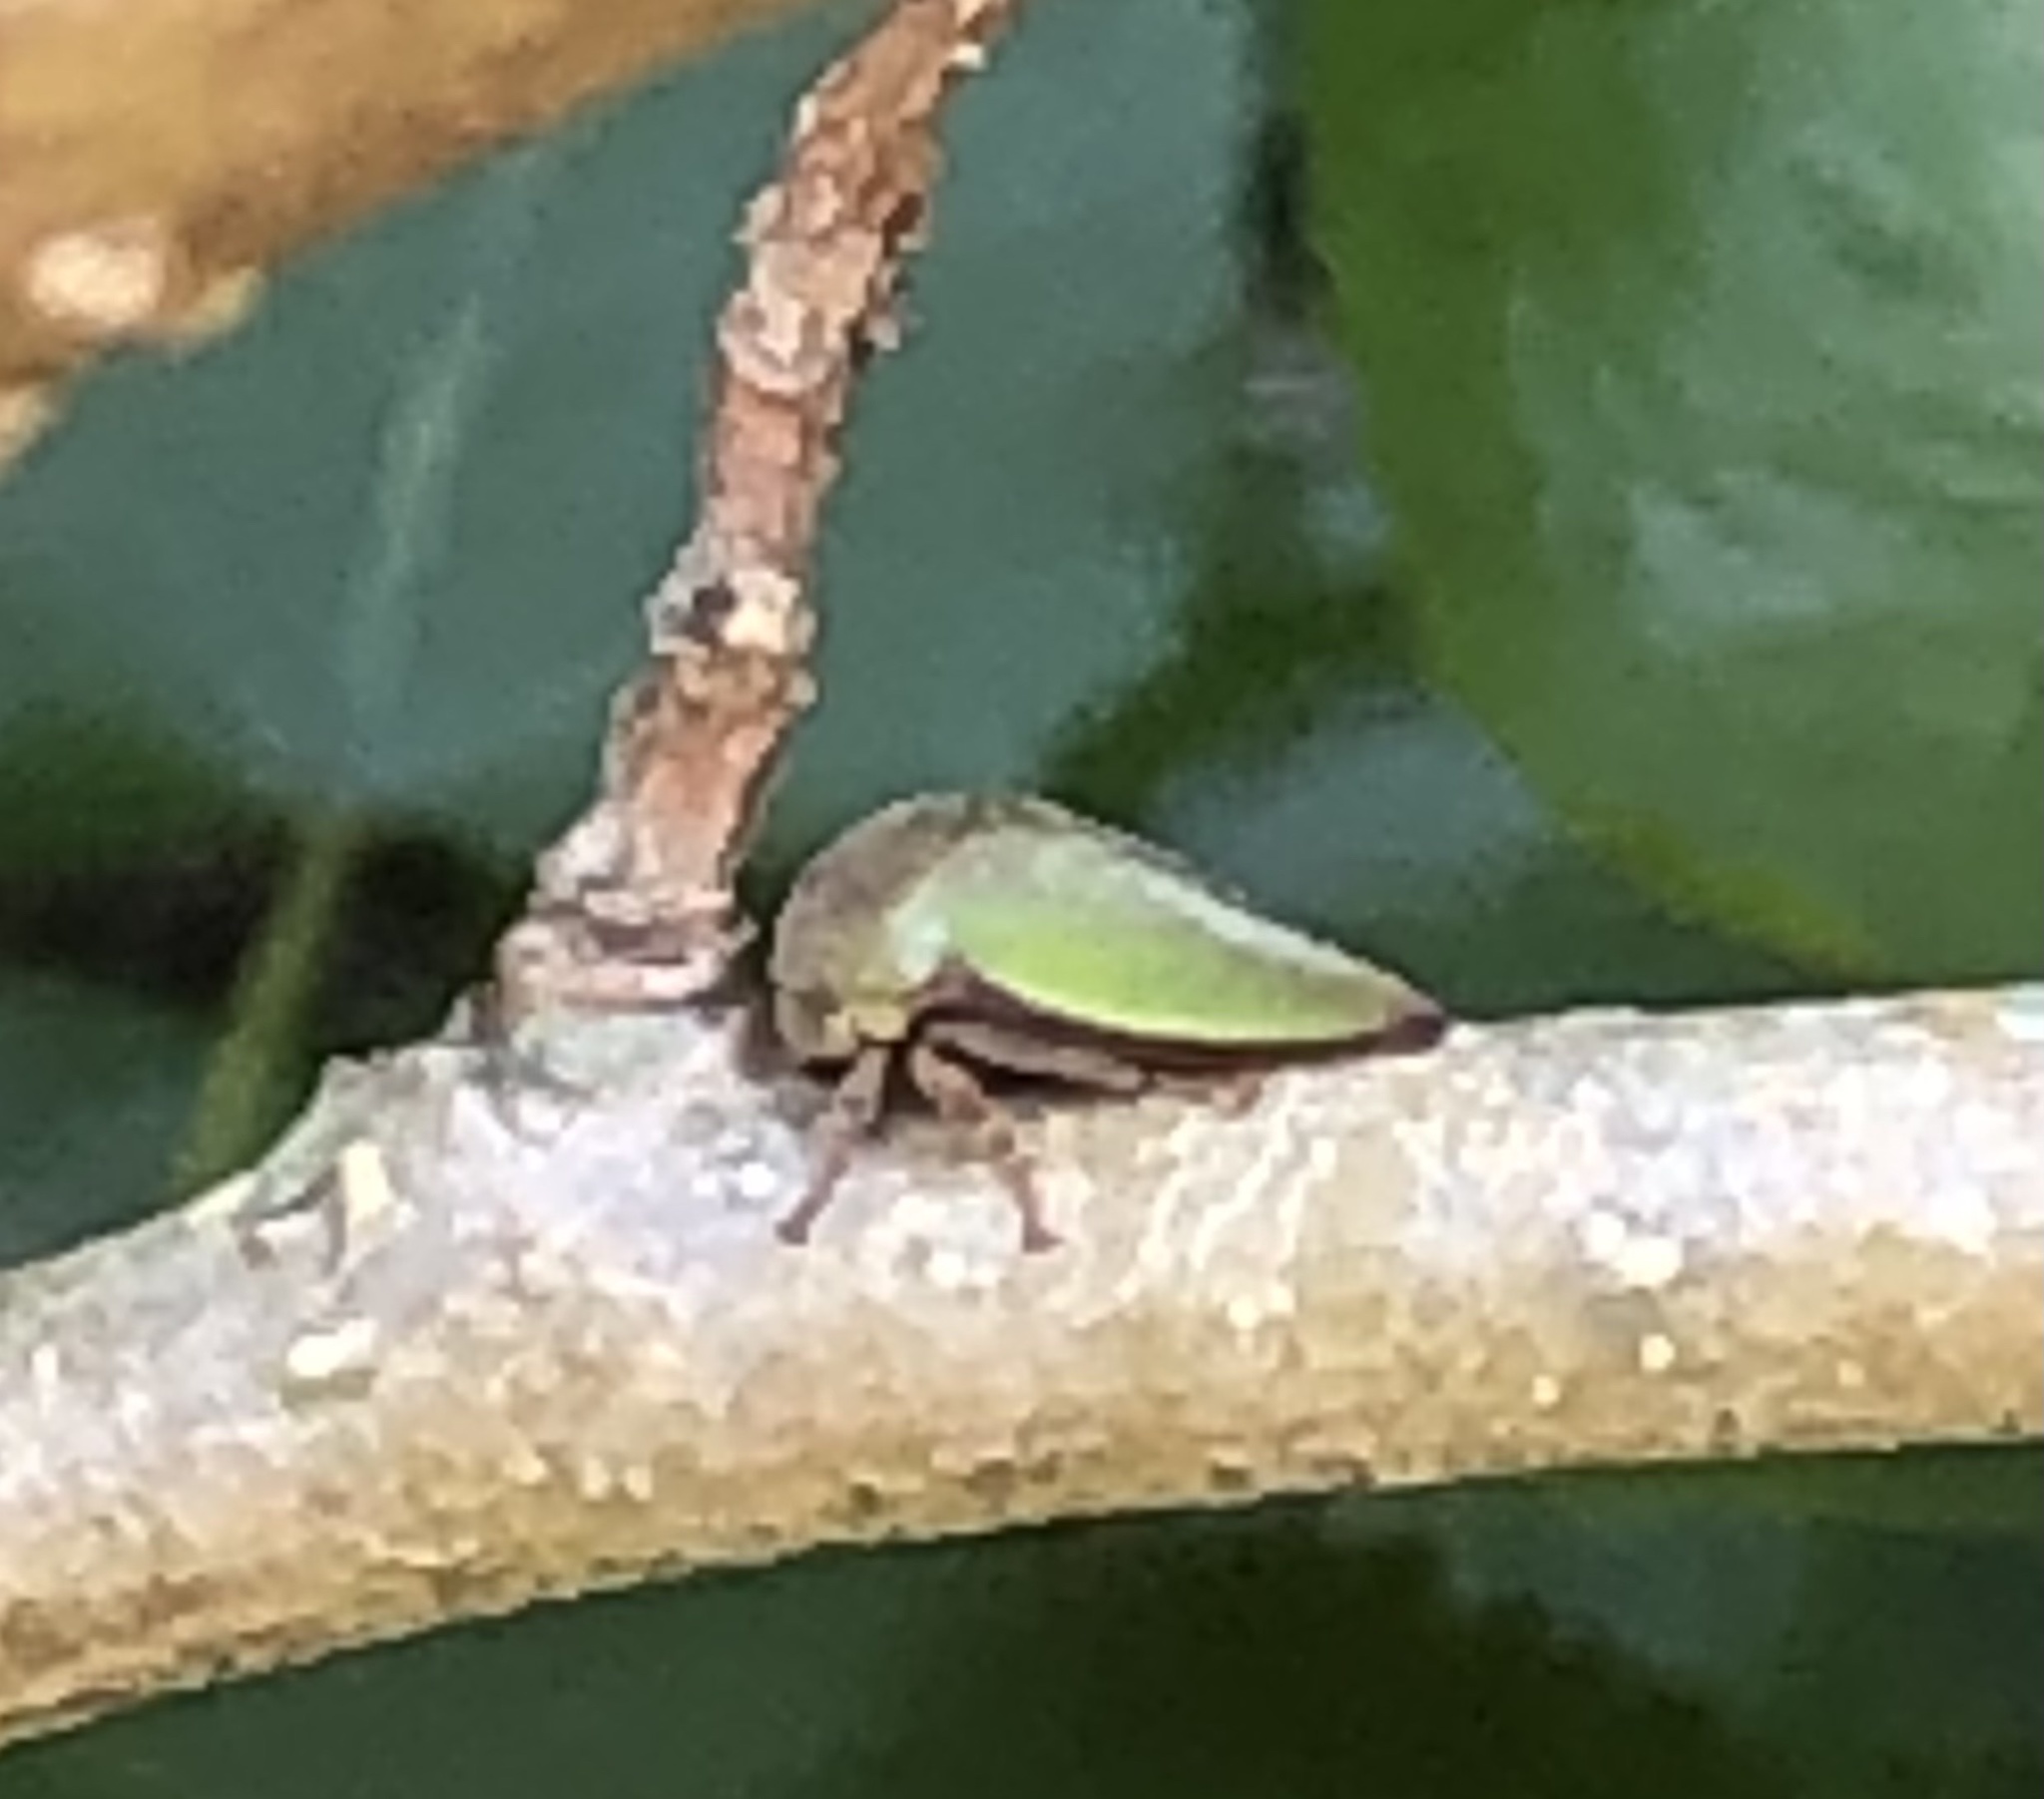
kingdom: Animalia
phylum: Arthropoda
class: Insecta
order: Hemiptera
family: Membracidae
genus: Hebetica
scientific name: Hebetica
